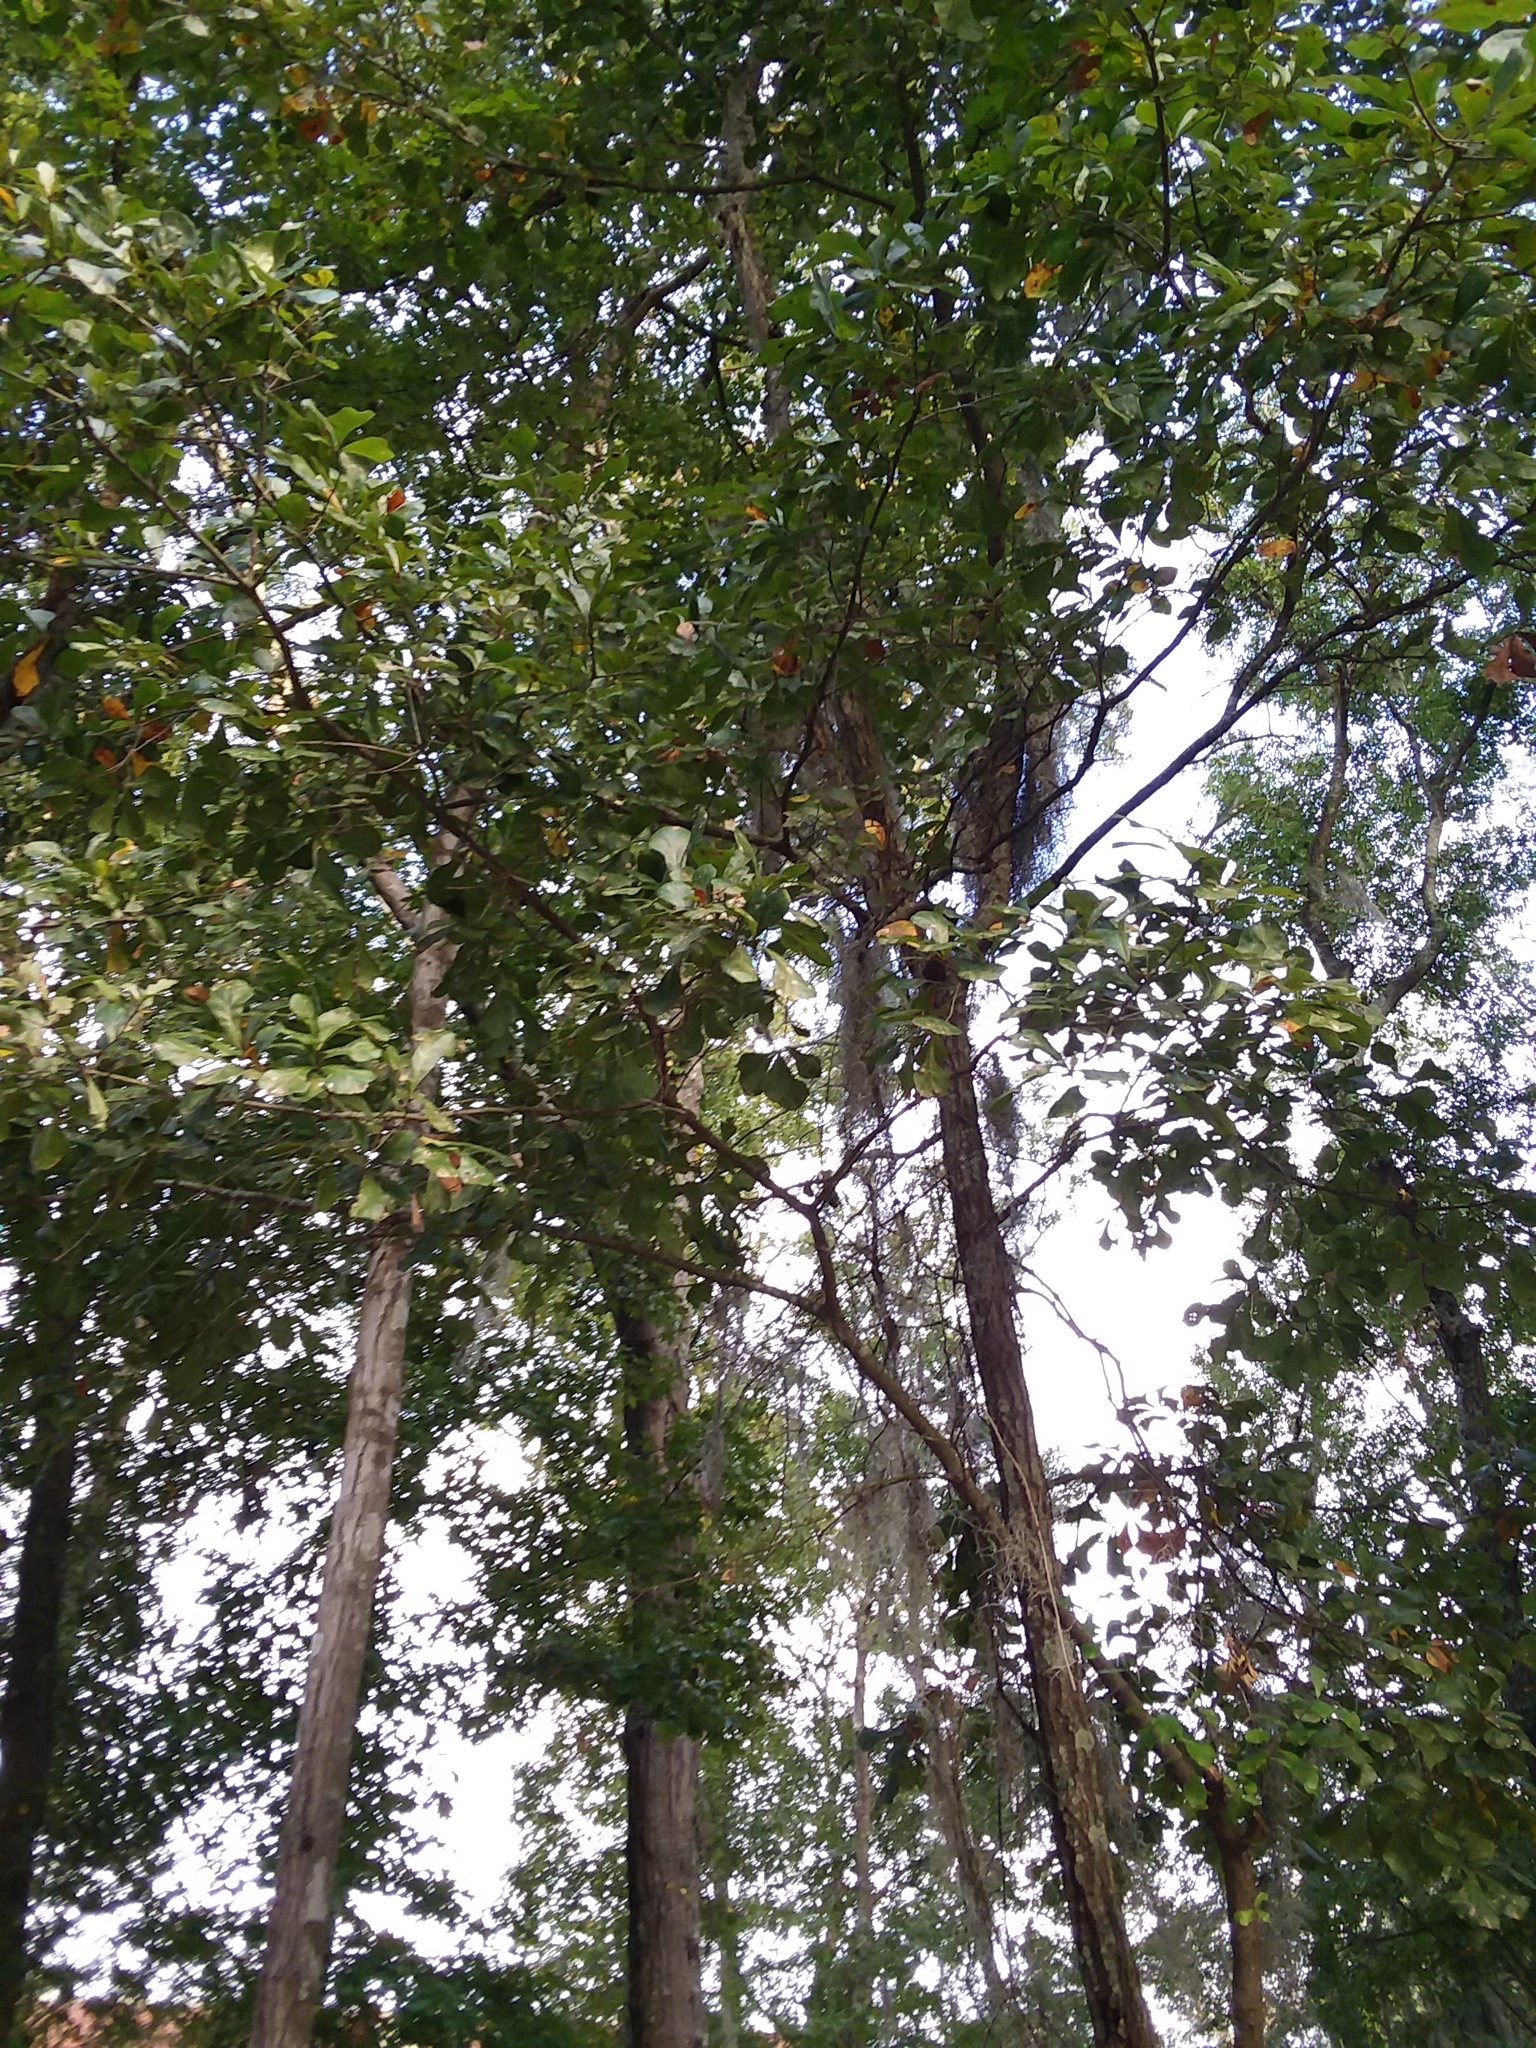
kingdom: Plantae
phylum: Tracheophyta
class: Magnoliopsida
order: Fagales
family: Fagaceae
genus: Quercus
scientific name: Quercus nigra
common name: Water oak
